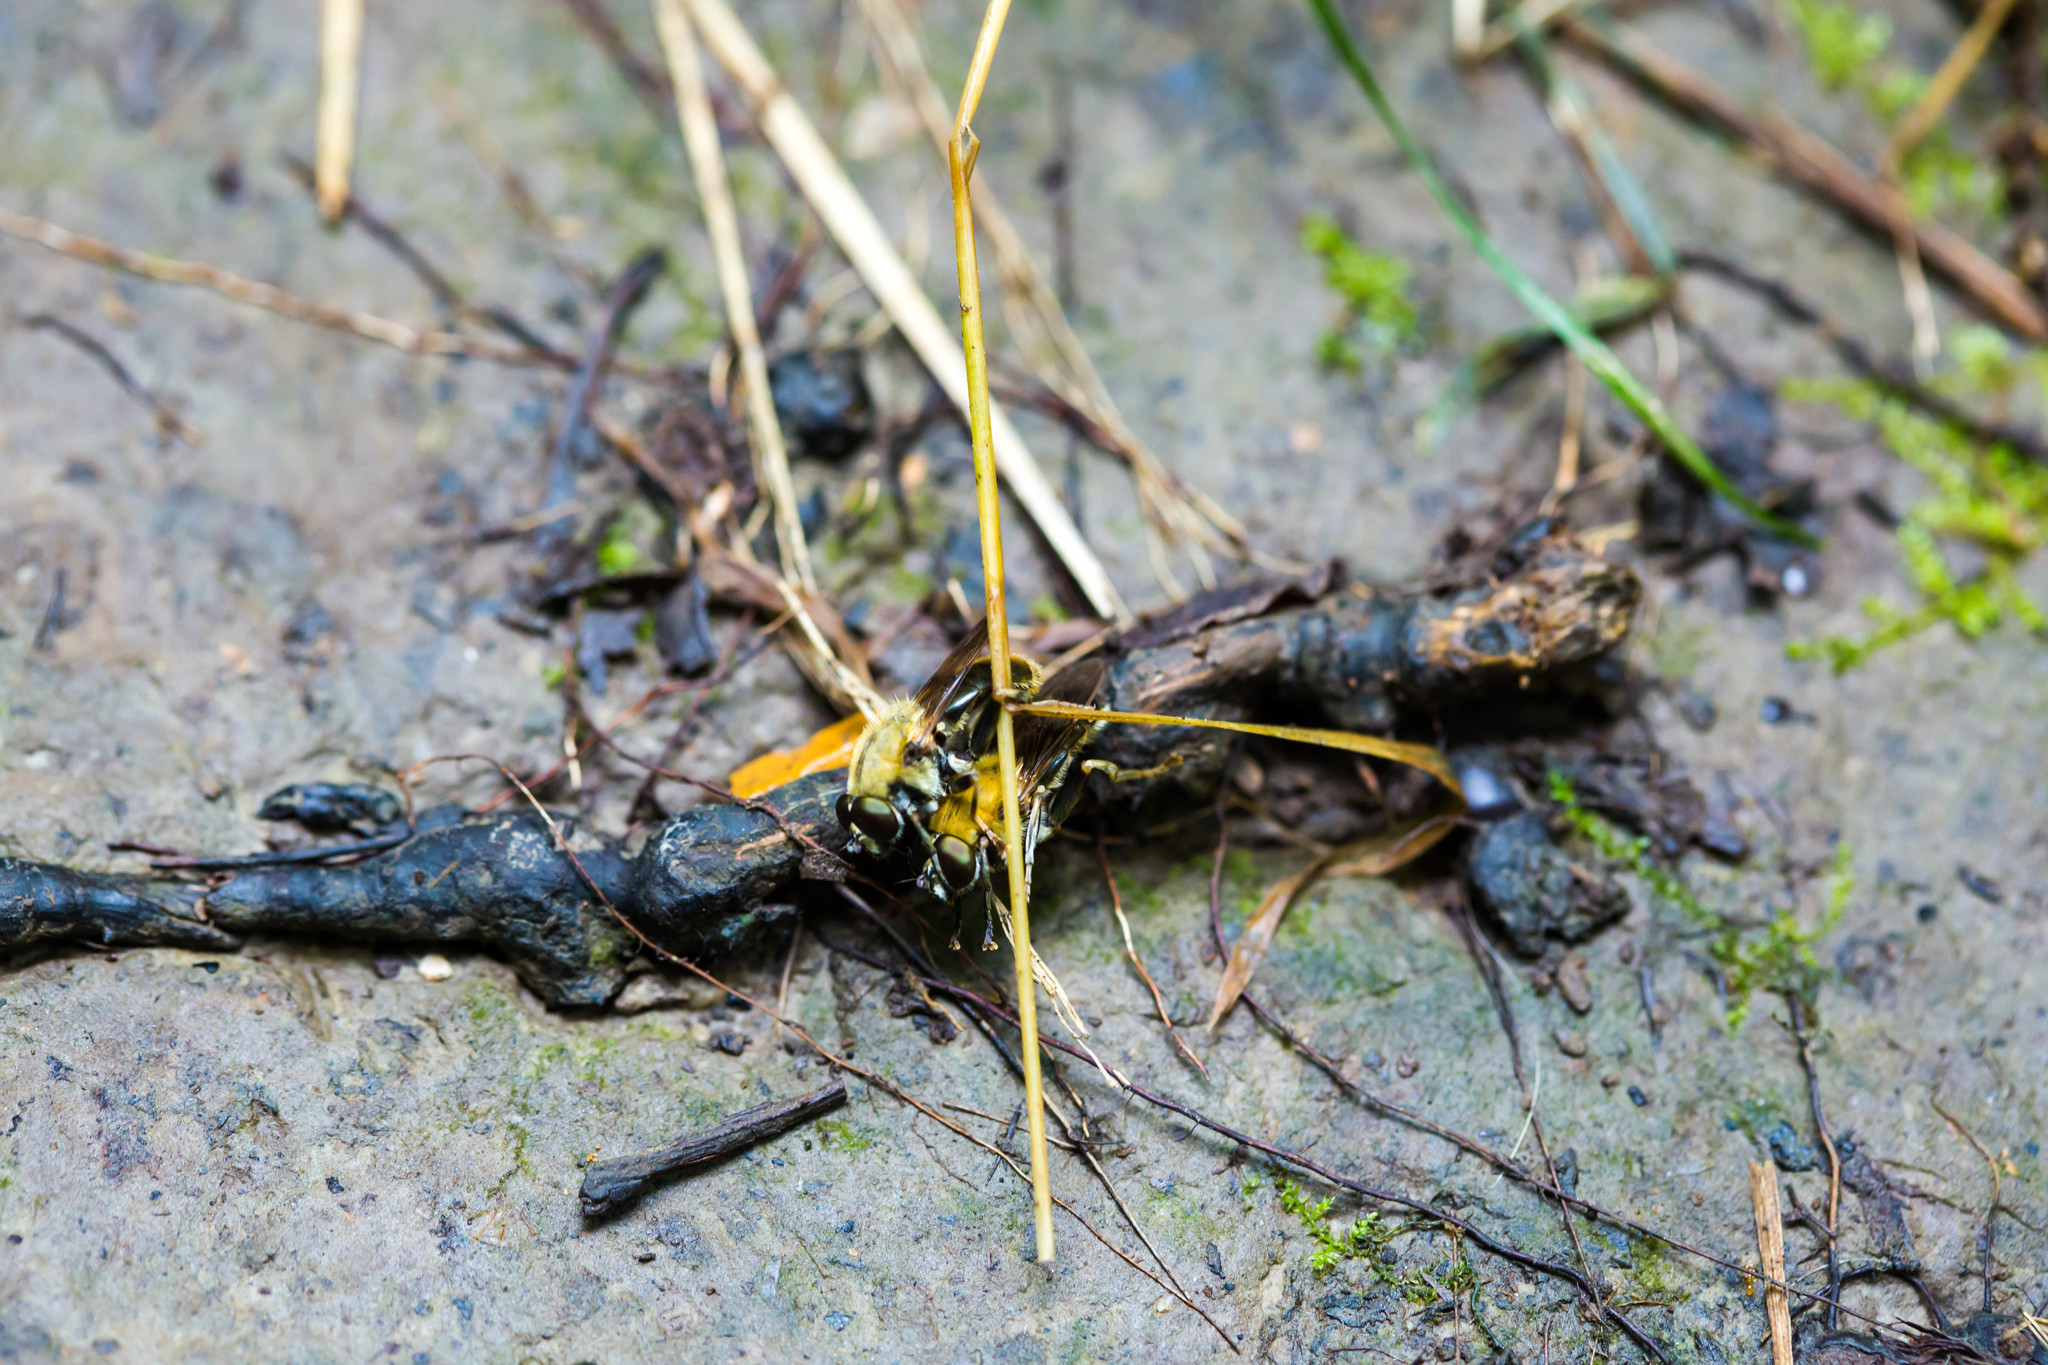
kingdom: Animalia
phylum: Arthropoda
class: Insecta
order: Diptera
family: Syrphidae
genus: Pterallastes
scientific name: Pterallastes thoracicus
